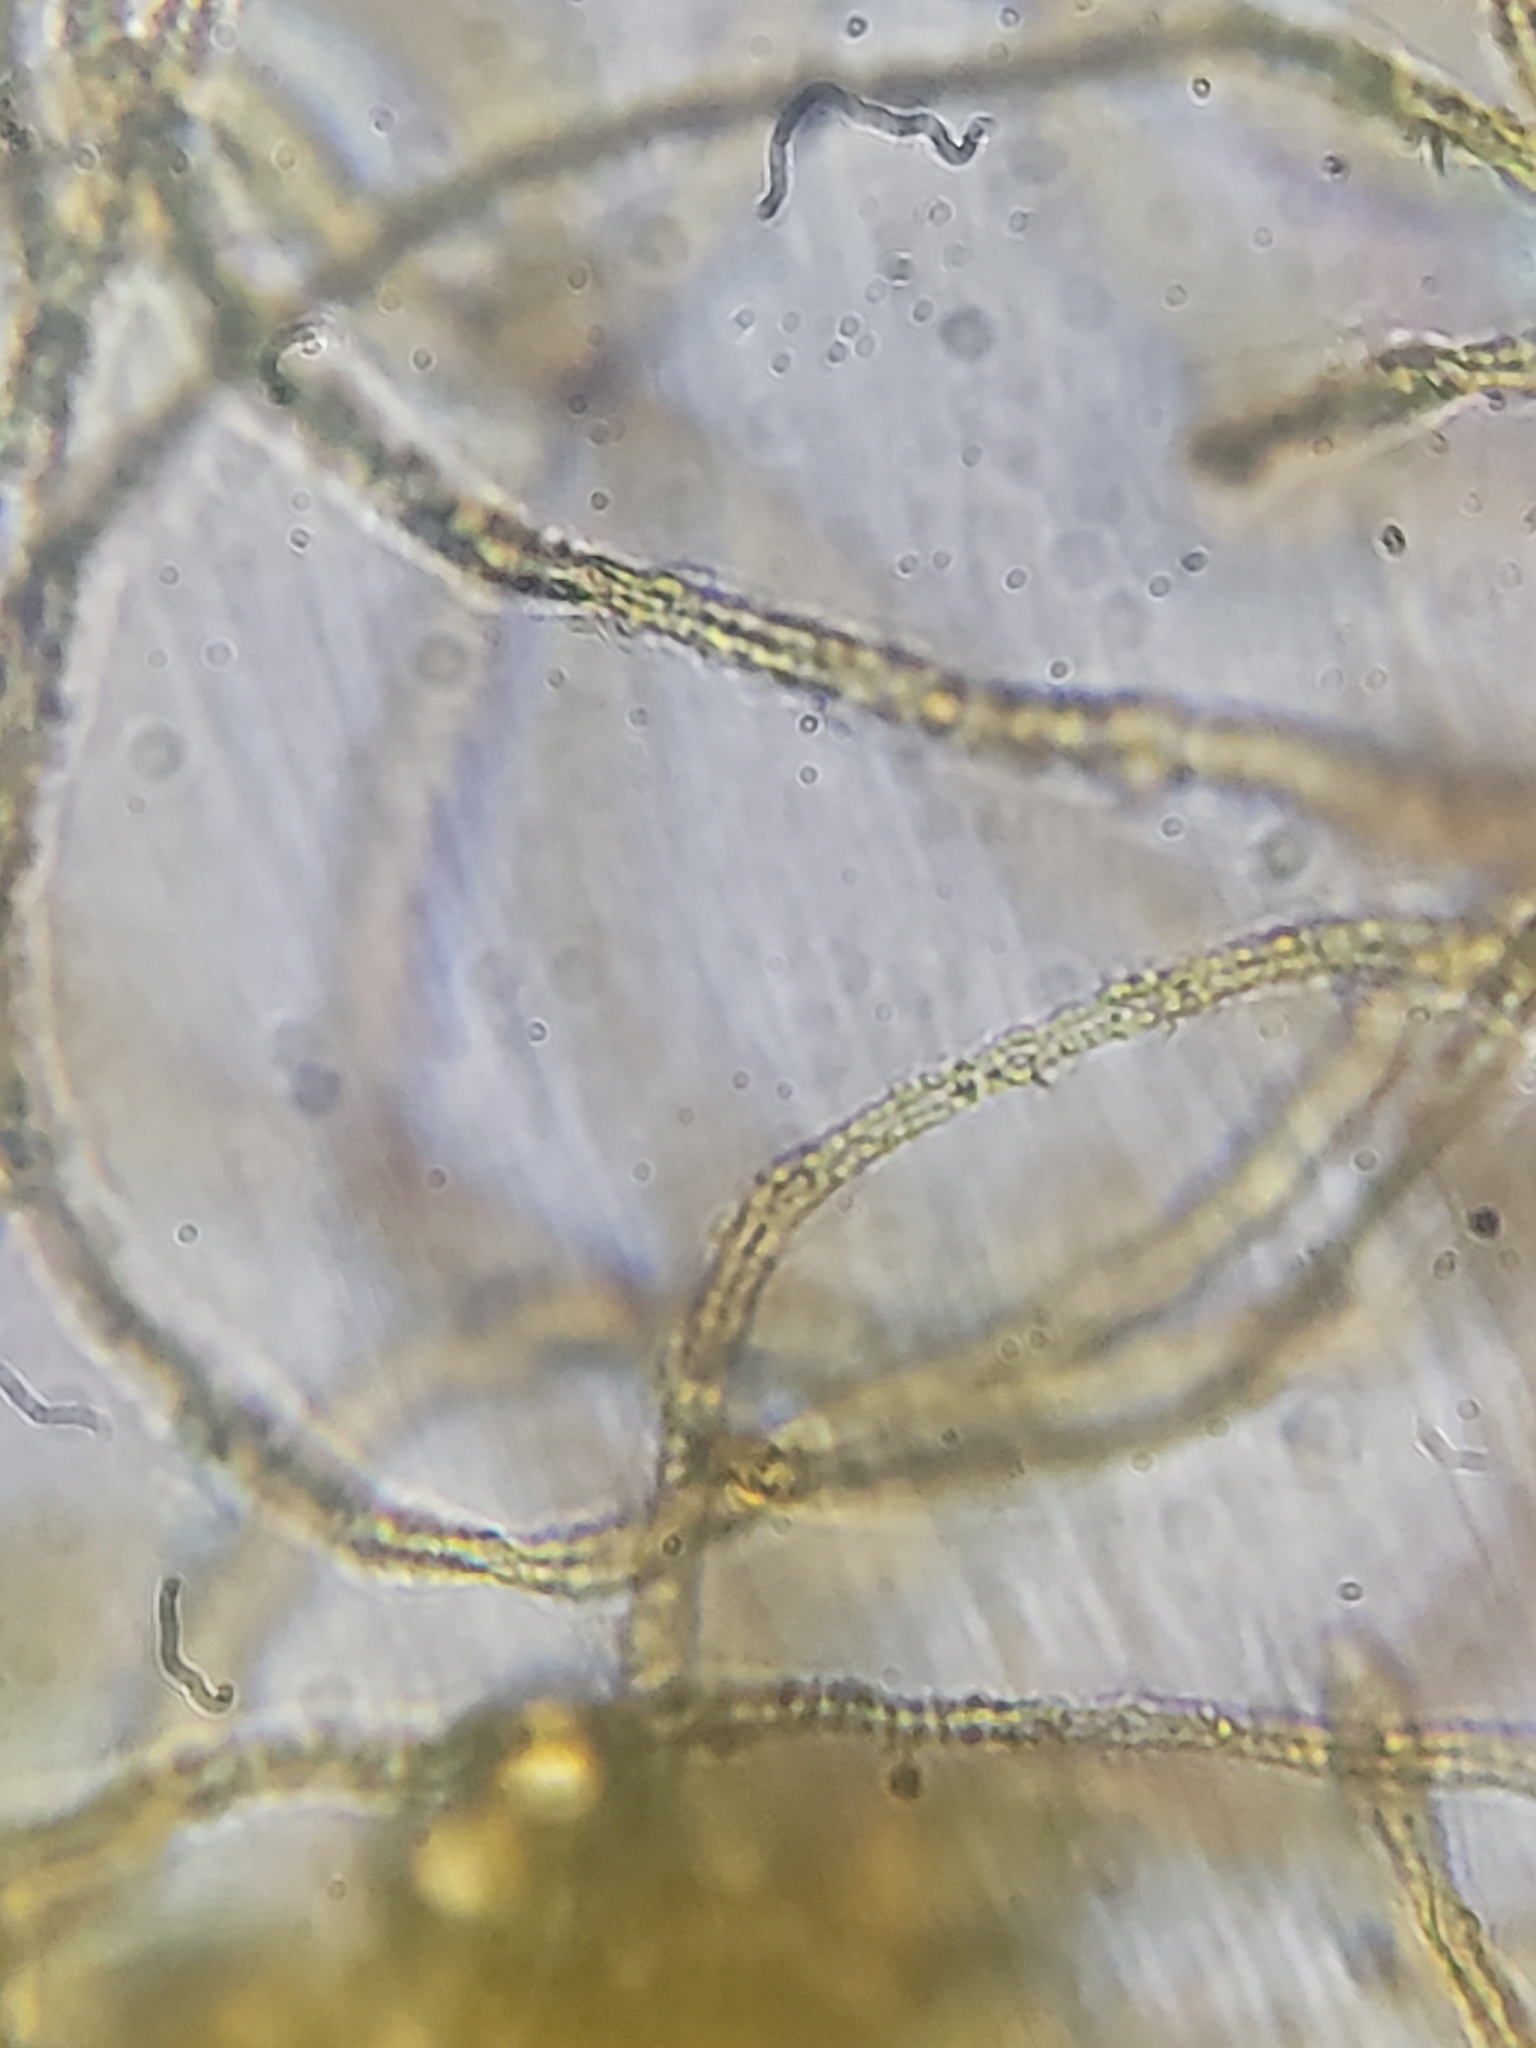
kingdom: Protozoa
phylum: Mycetozoa
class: Myxomycetes
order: Trichiales
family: Trichiaceae
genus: Perichaena
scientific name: Perichaena depressa
